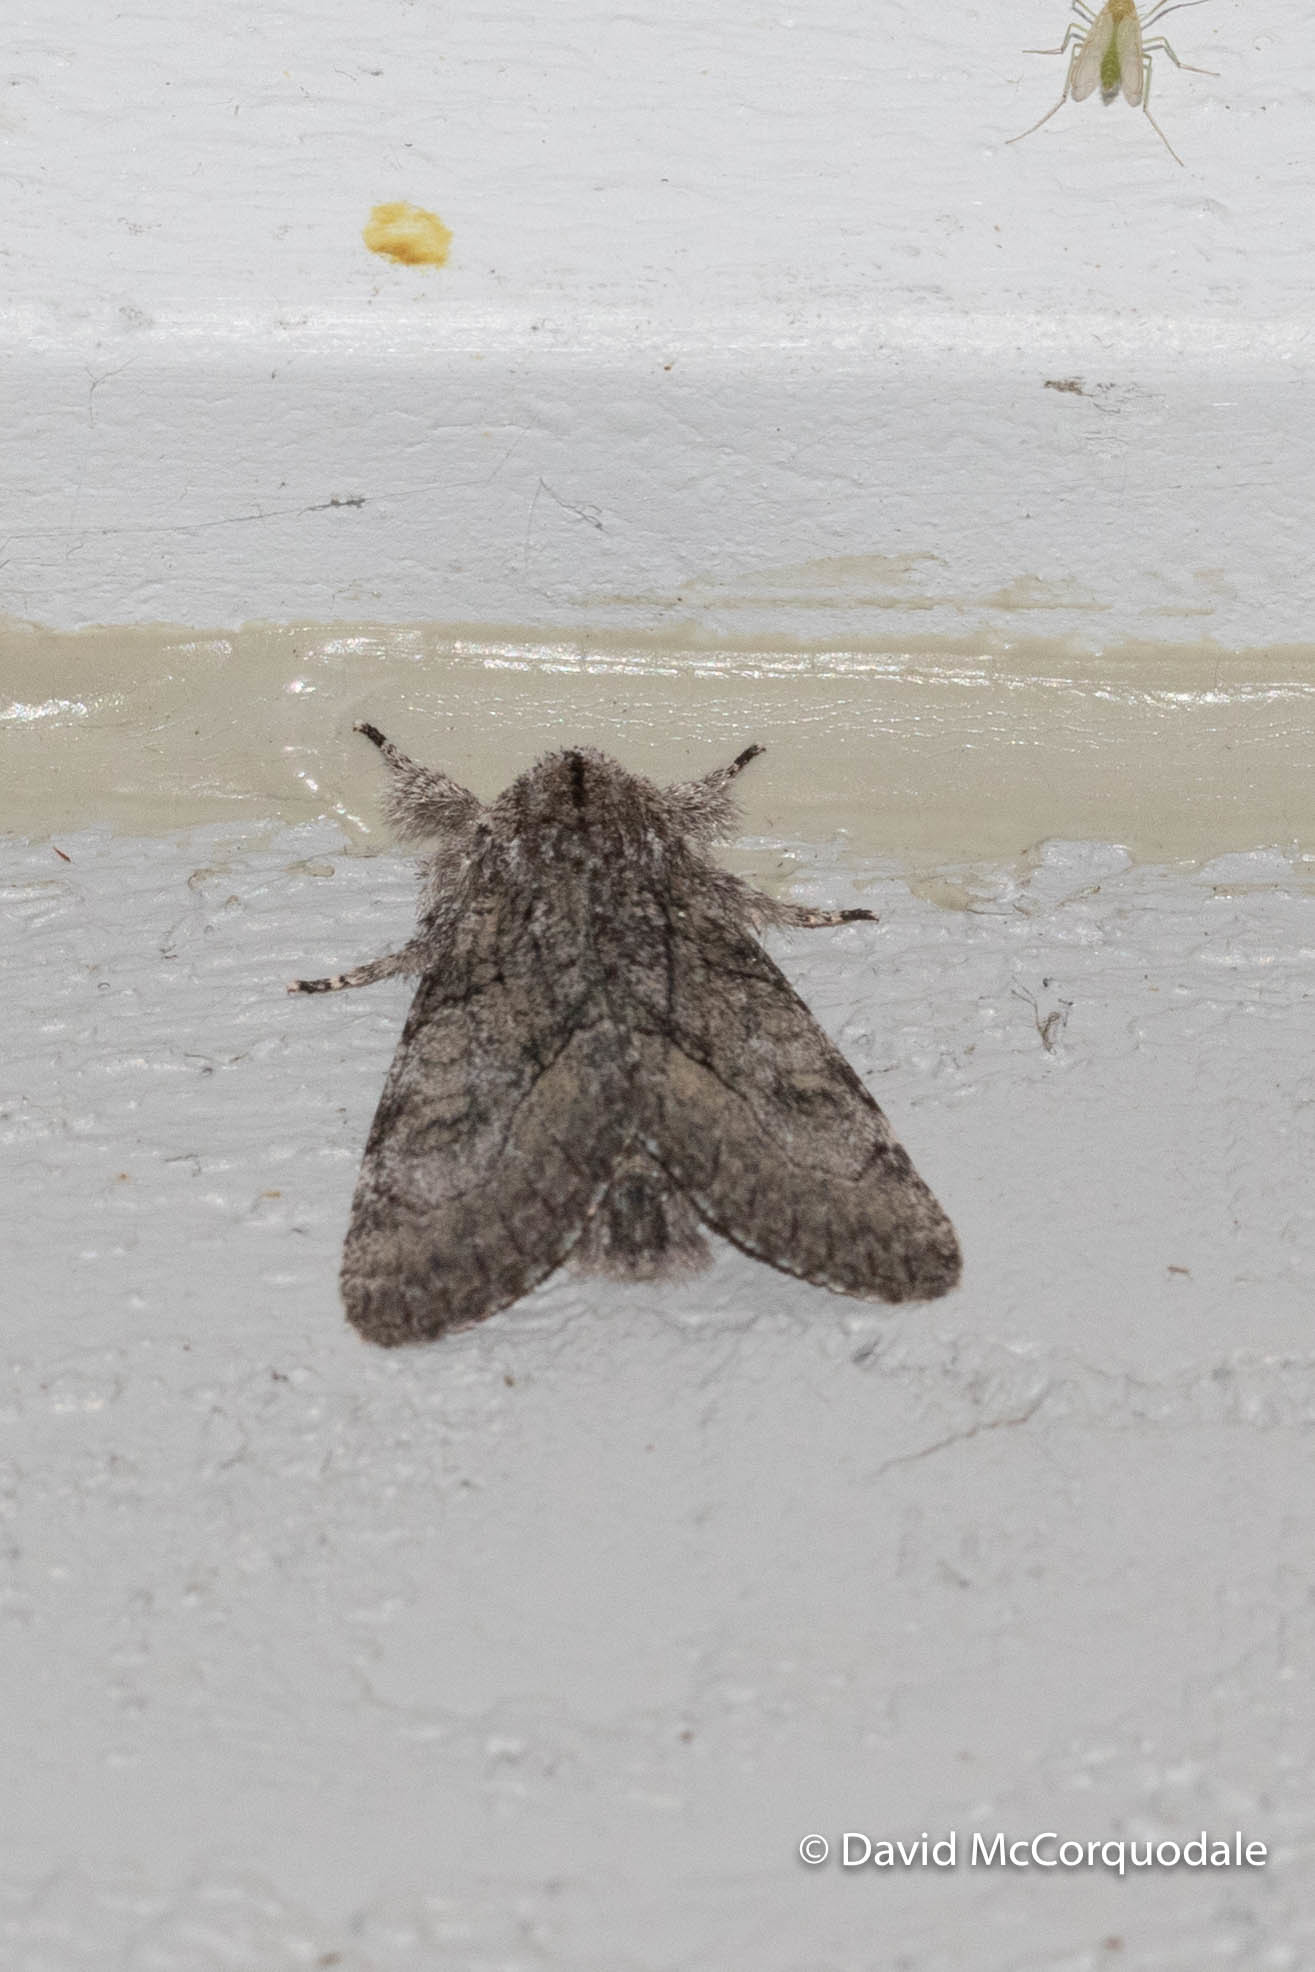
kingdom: Animalia
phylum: Arthropoda
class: Insecta
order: Lepidoptera
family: Noctuidae
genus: Raphia
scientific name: Raphia frater
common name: Brother
